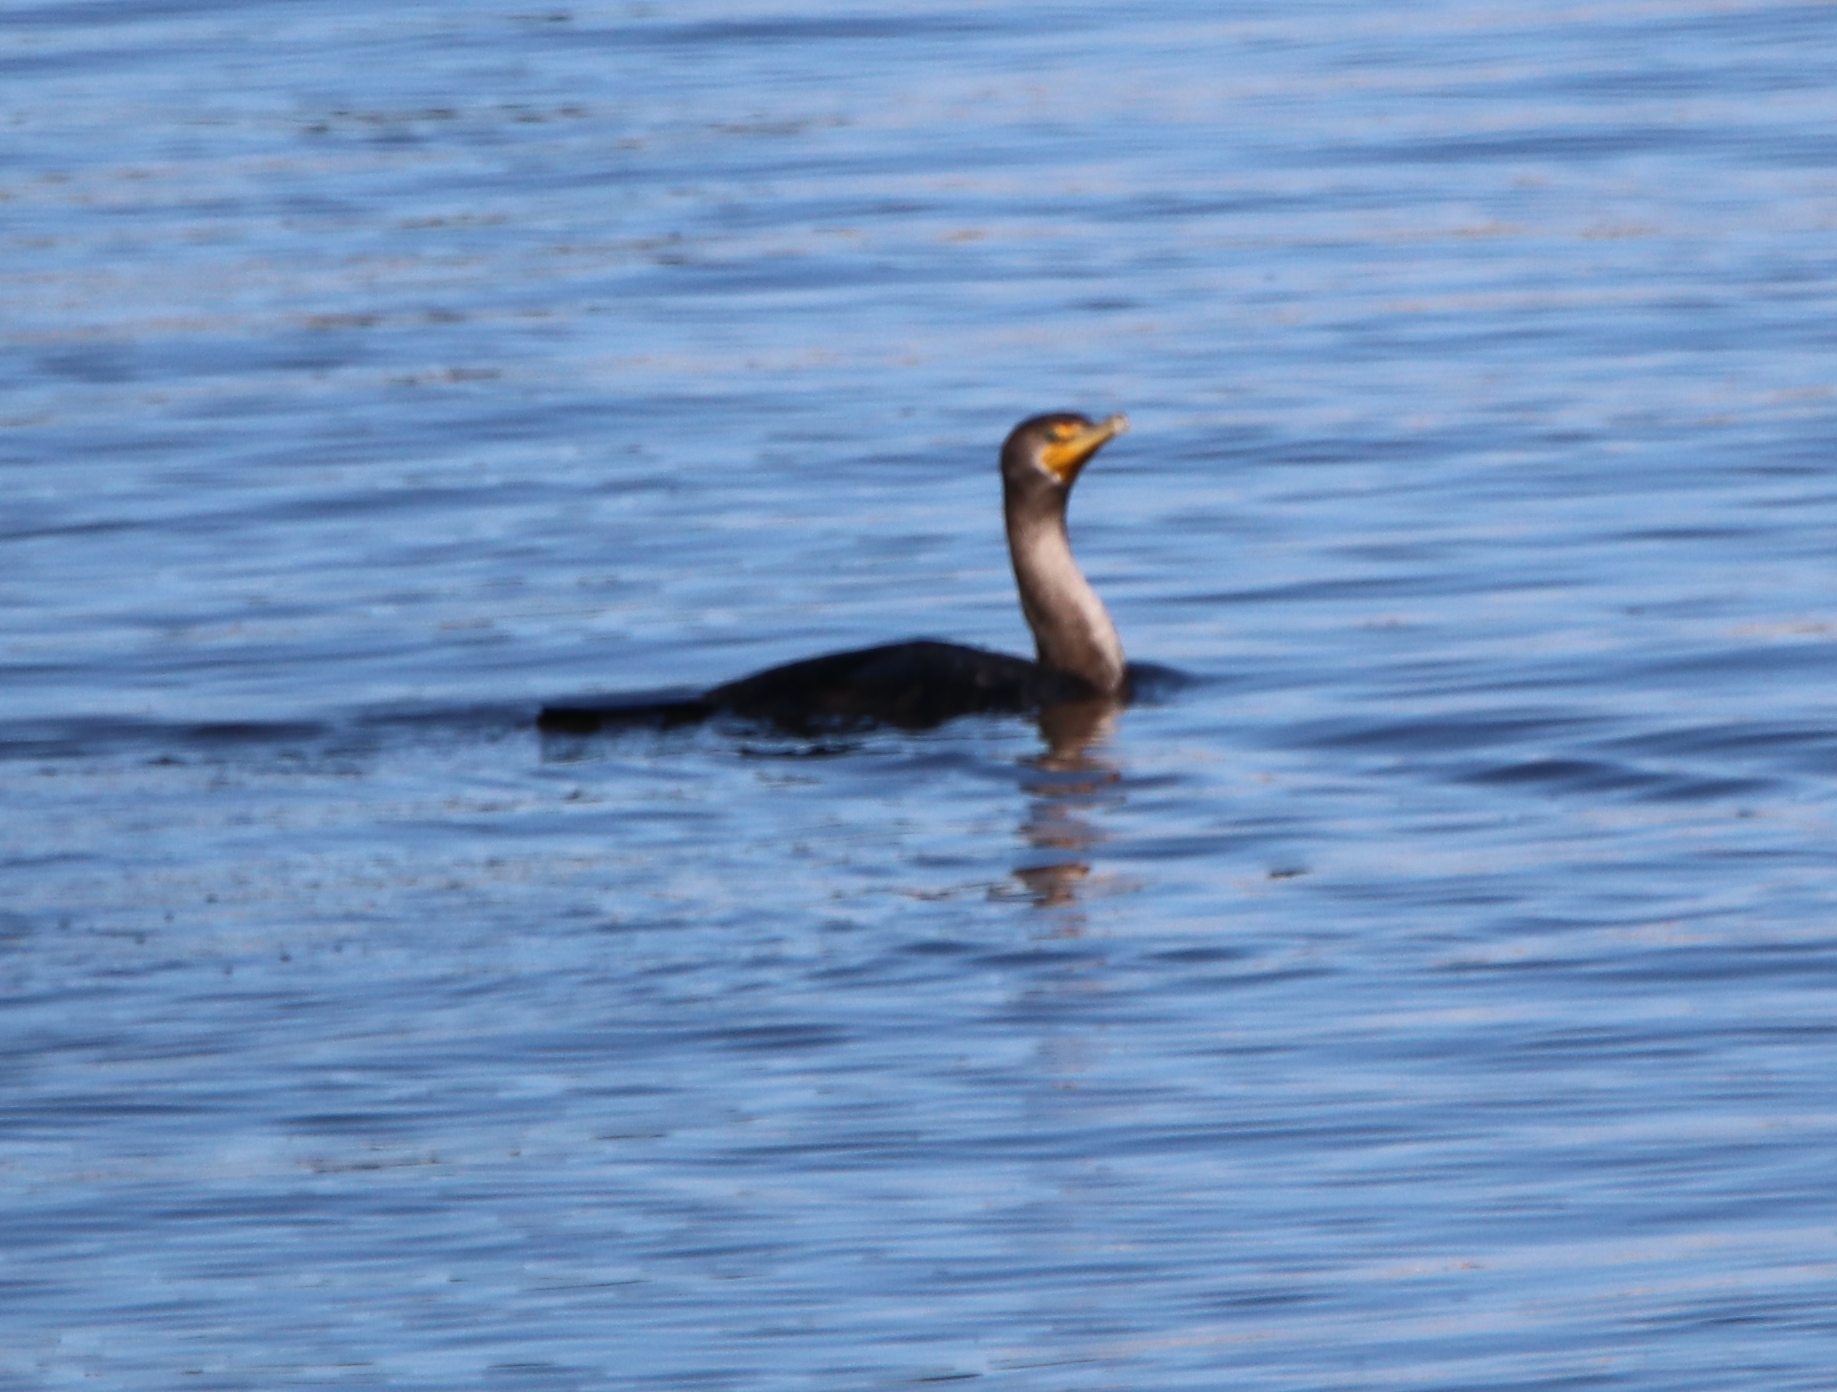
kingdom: Animalia
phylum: Chordata
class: Aves
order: Suliformes
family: Phalacrocoracidae
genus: Phalacrocorax
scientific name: Phalacrocorax auritus
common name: Double-crested cormorant
